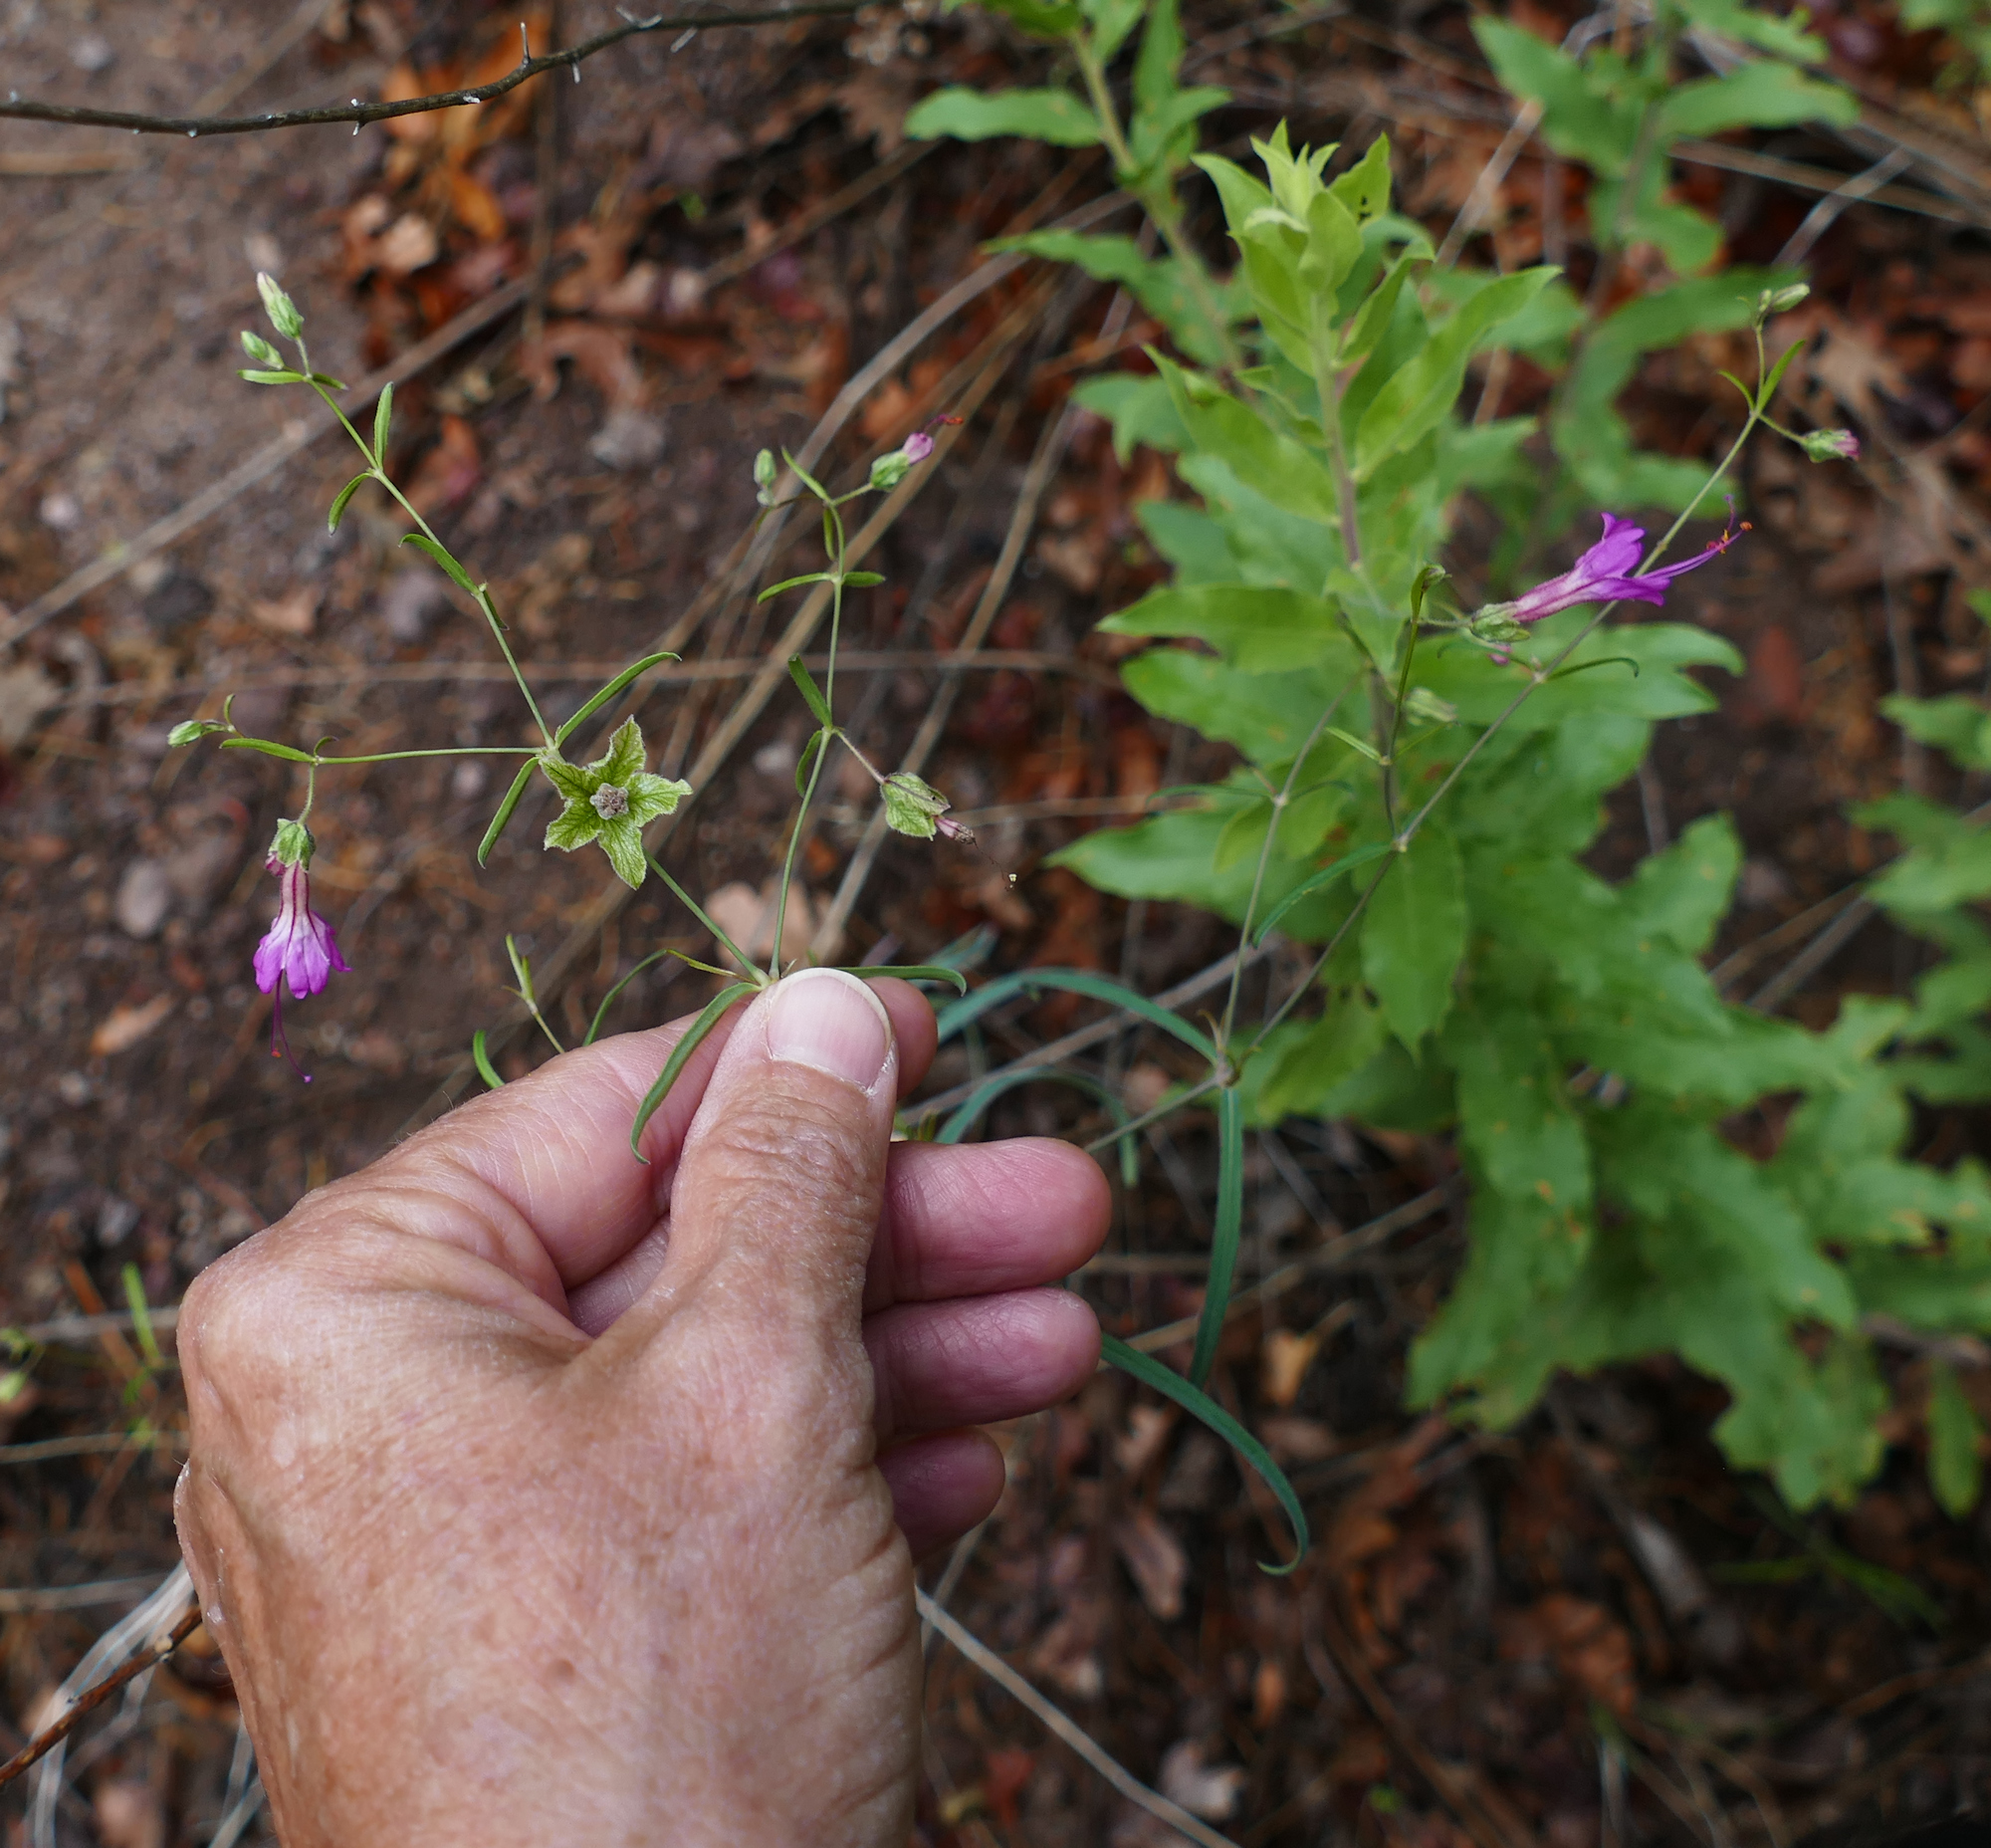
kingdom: Plantae
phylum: Tracheophyta
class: Magnoliopsida
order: Caryophyllales
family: Nyctaginaceae
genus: Mirabilis
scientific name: Mirabilis coccinea
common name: Scarlet four-o'clock
